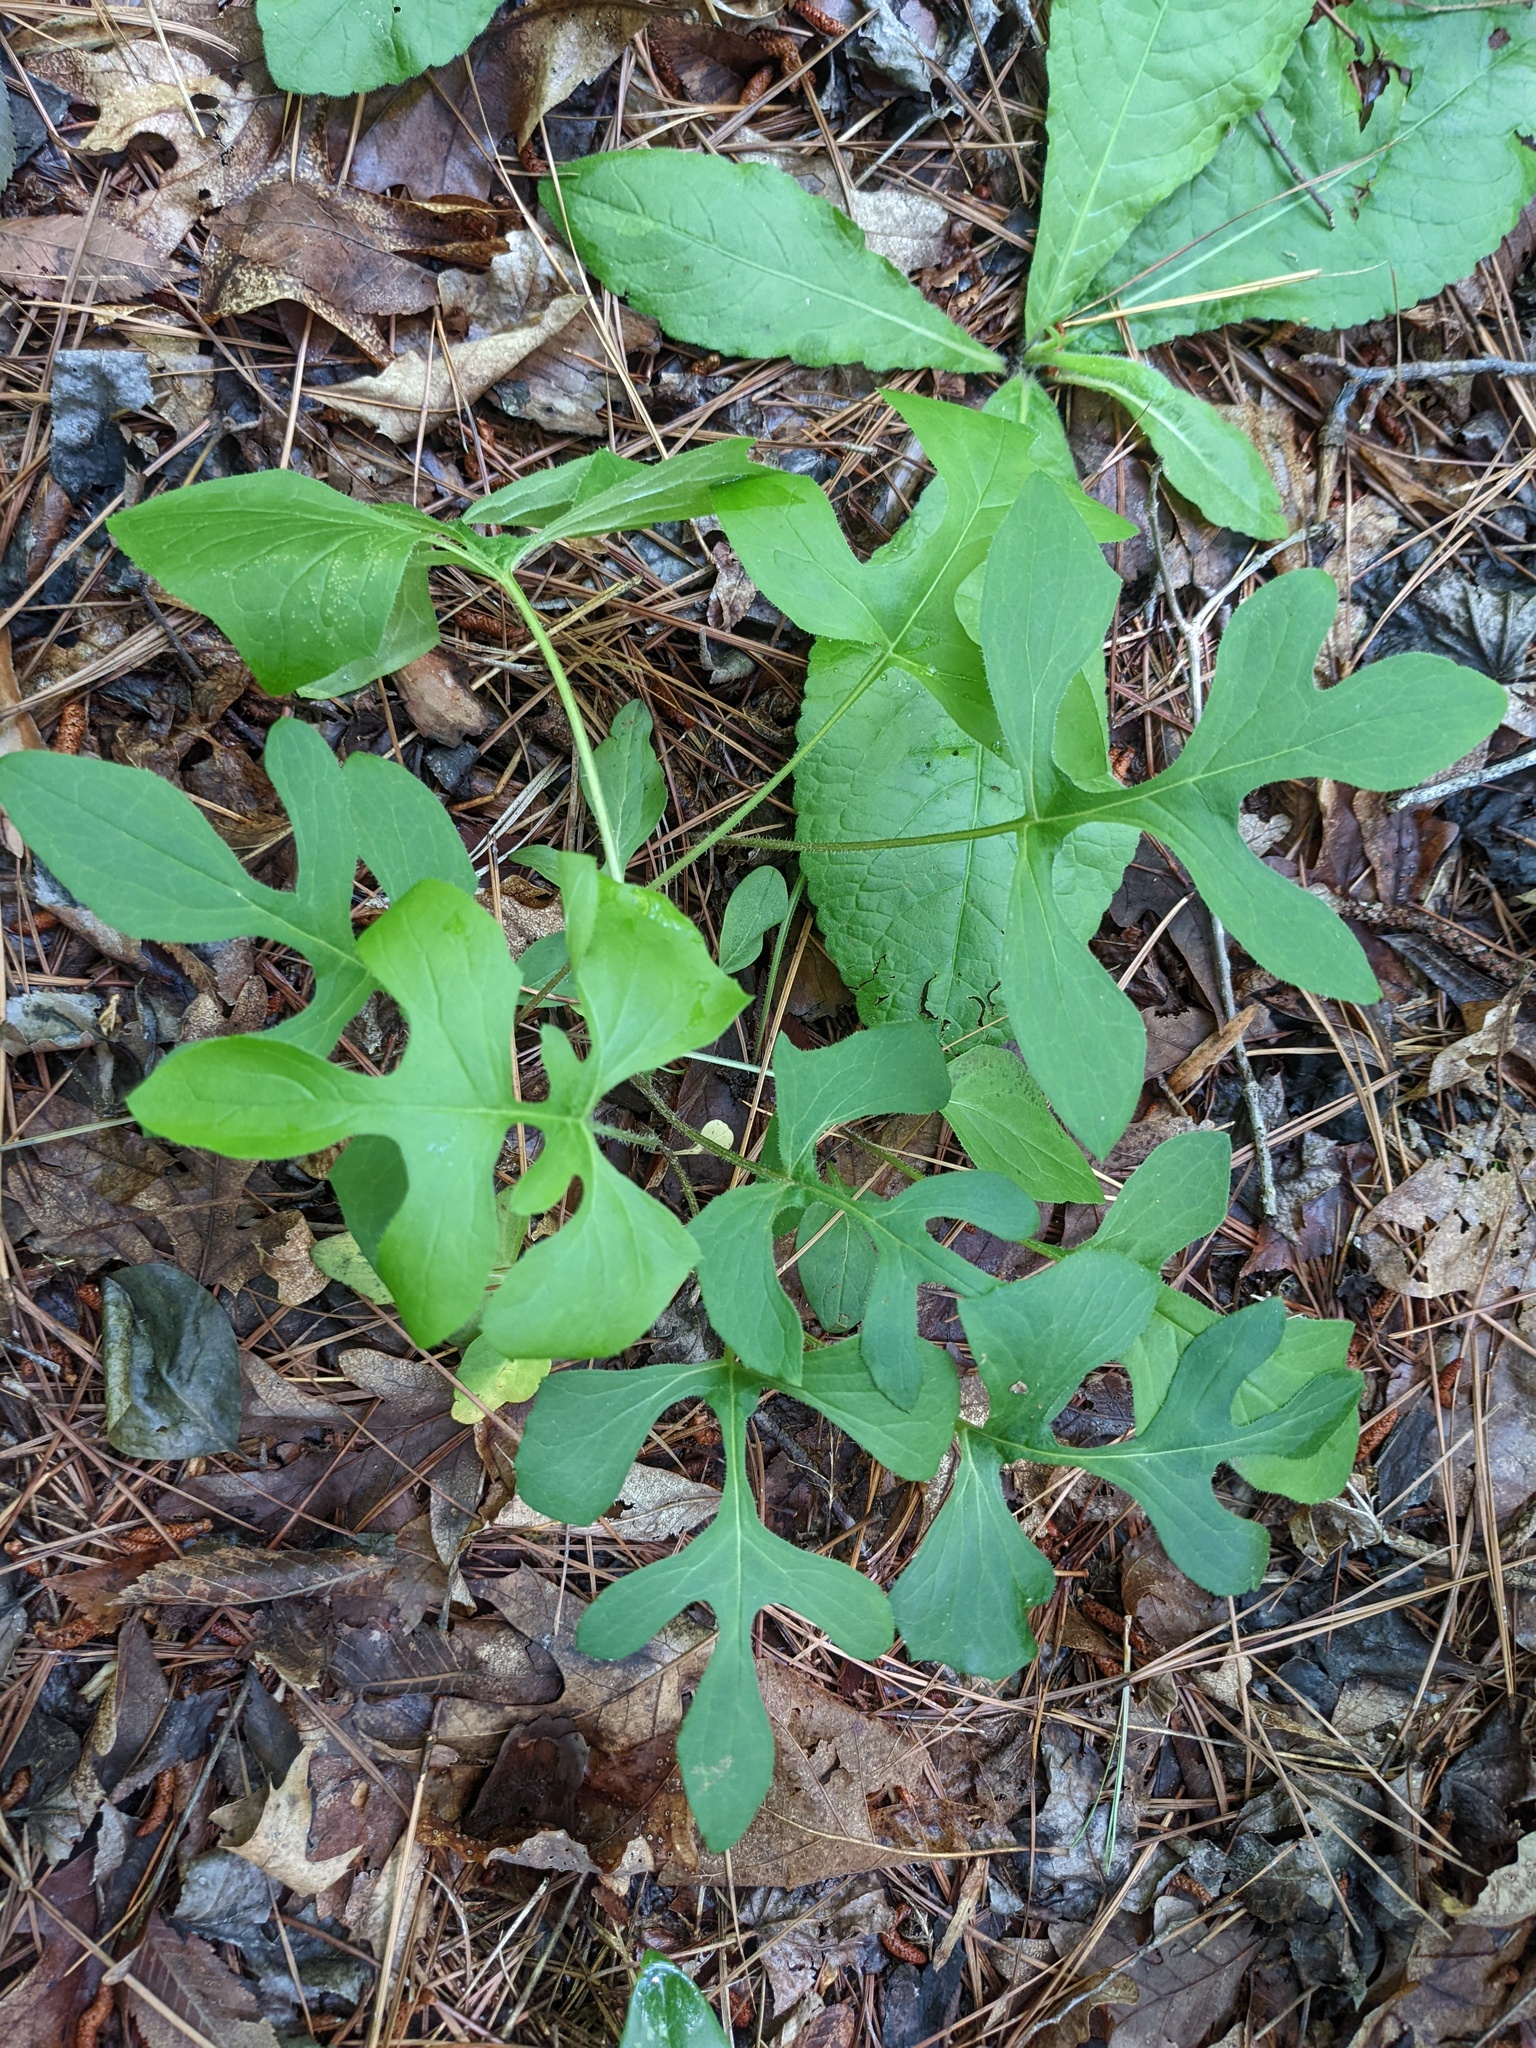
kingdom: Plantae
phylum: Tracheophyta
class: Magnoliopsida
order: Asterales
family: Asteraceae
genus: Nabalus
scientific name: Nabalus serpentarius
